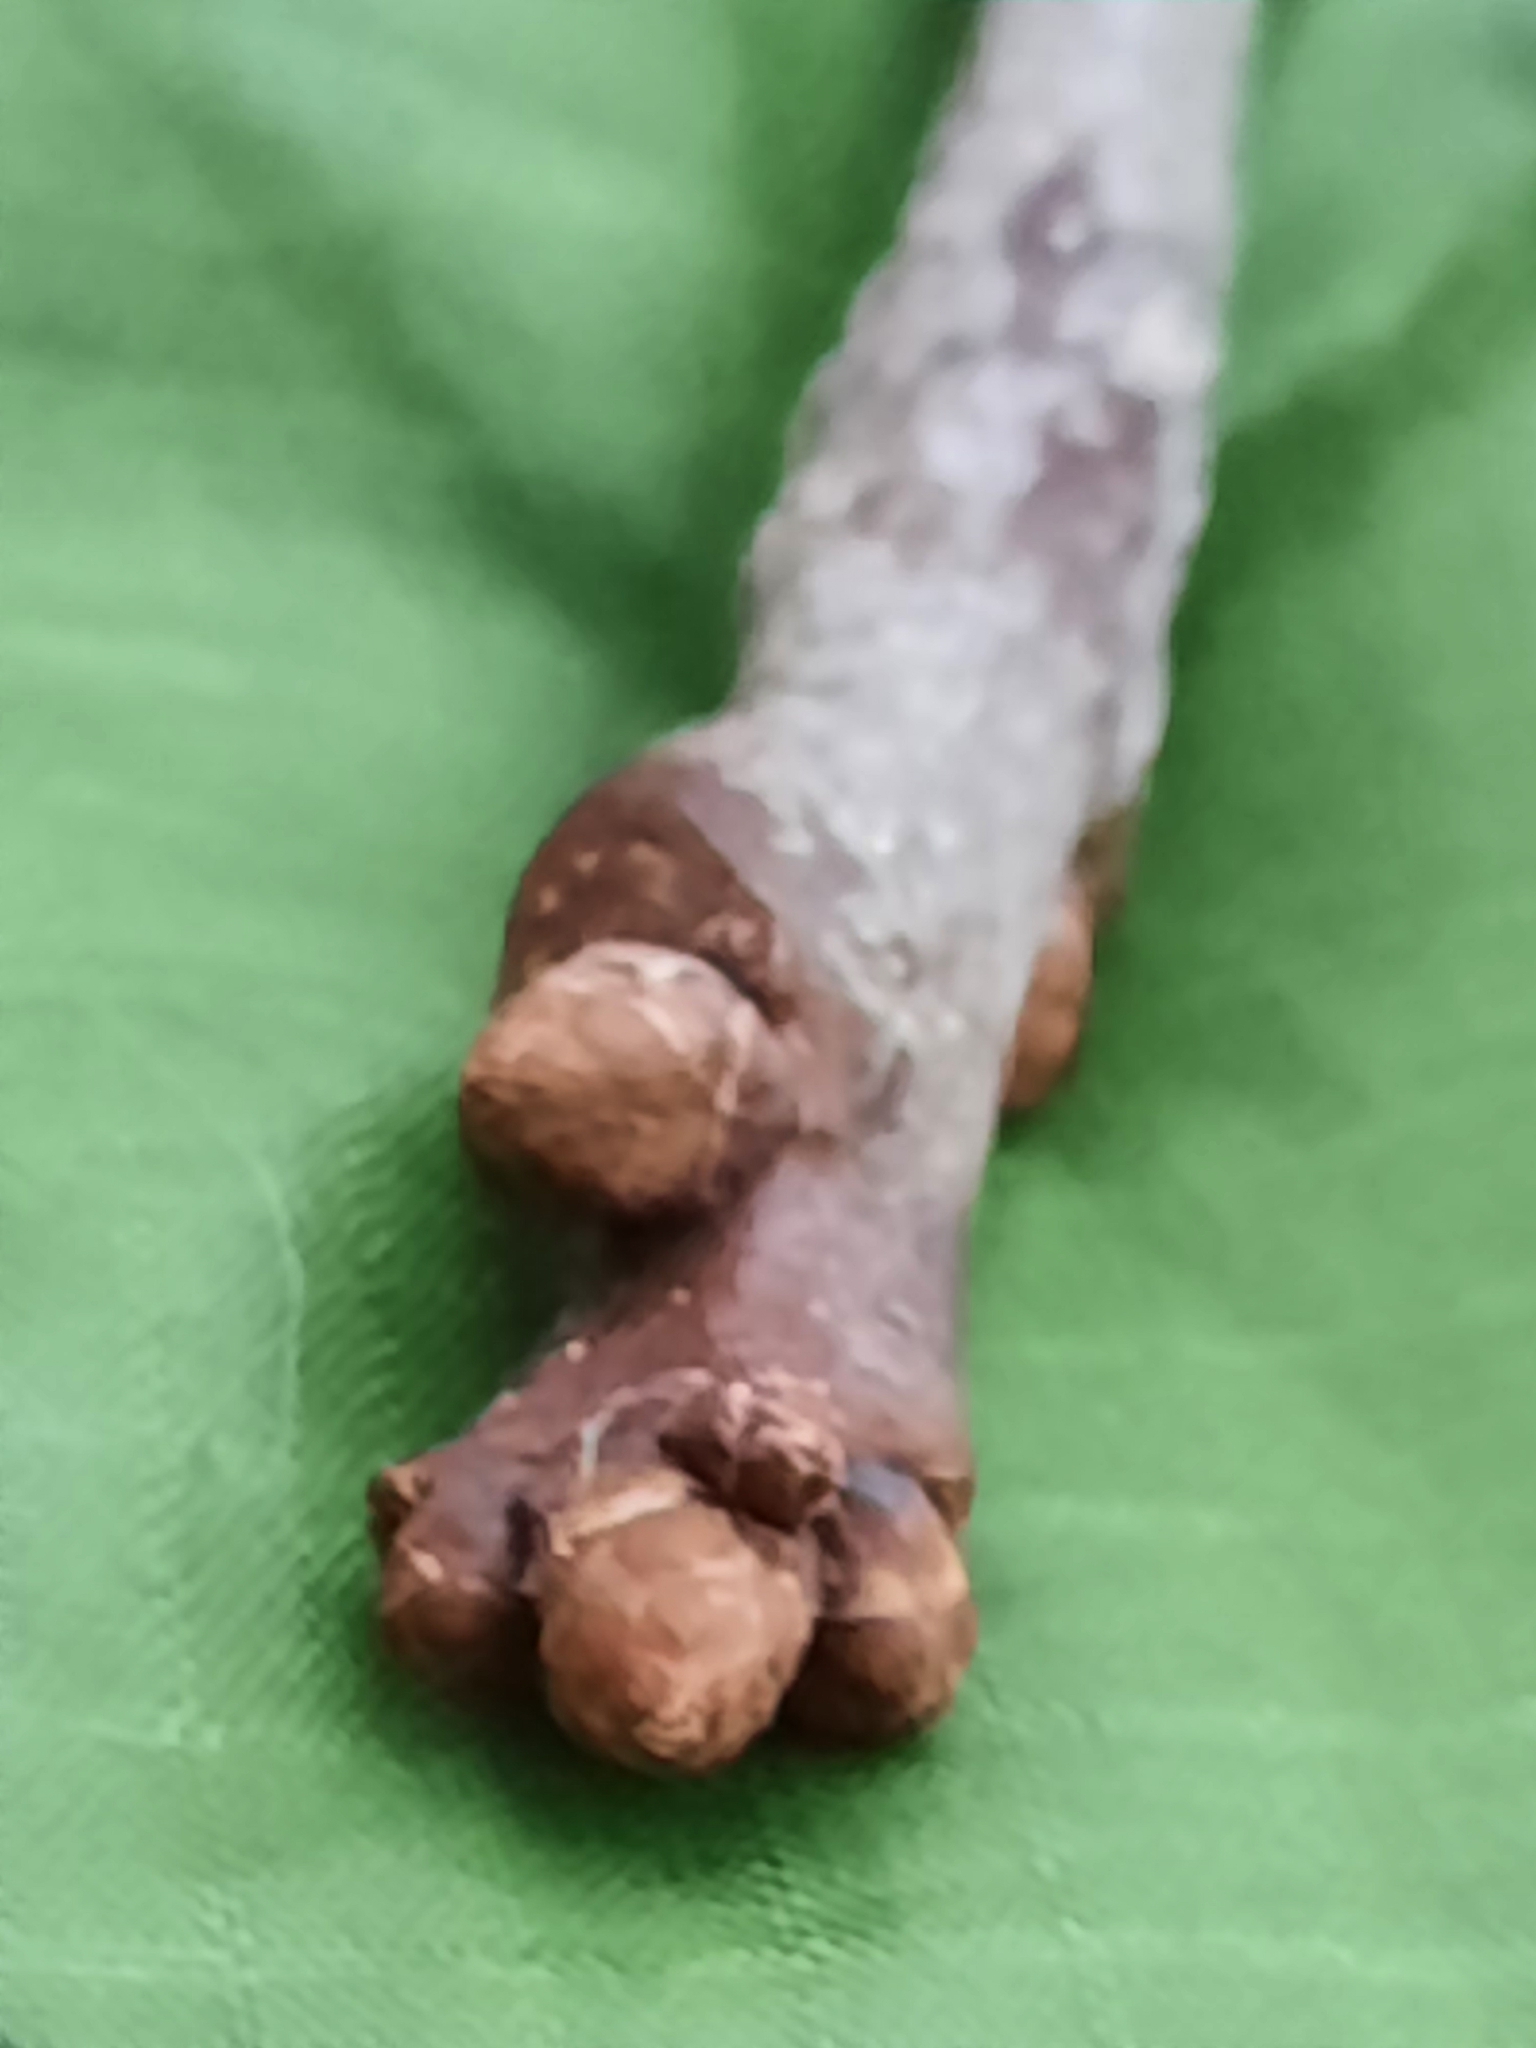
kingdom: Plantae
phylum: Tracheophyta
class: Magnoliopsida
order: Fagales
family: Fagaceae
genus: Quercus
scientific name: Quercus alba
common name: White oak
